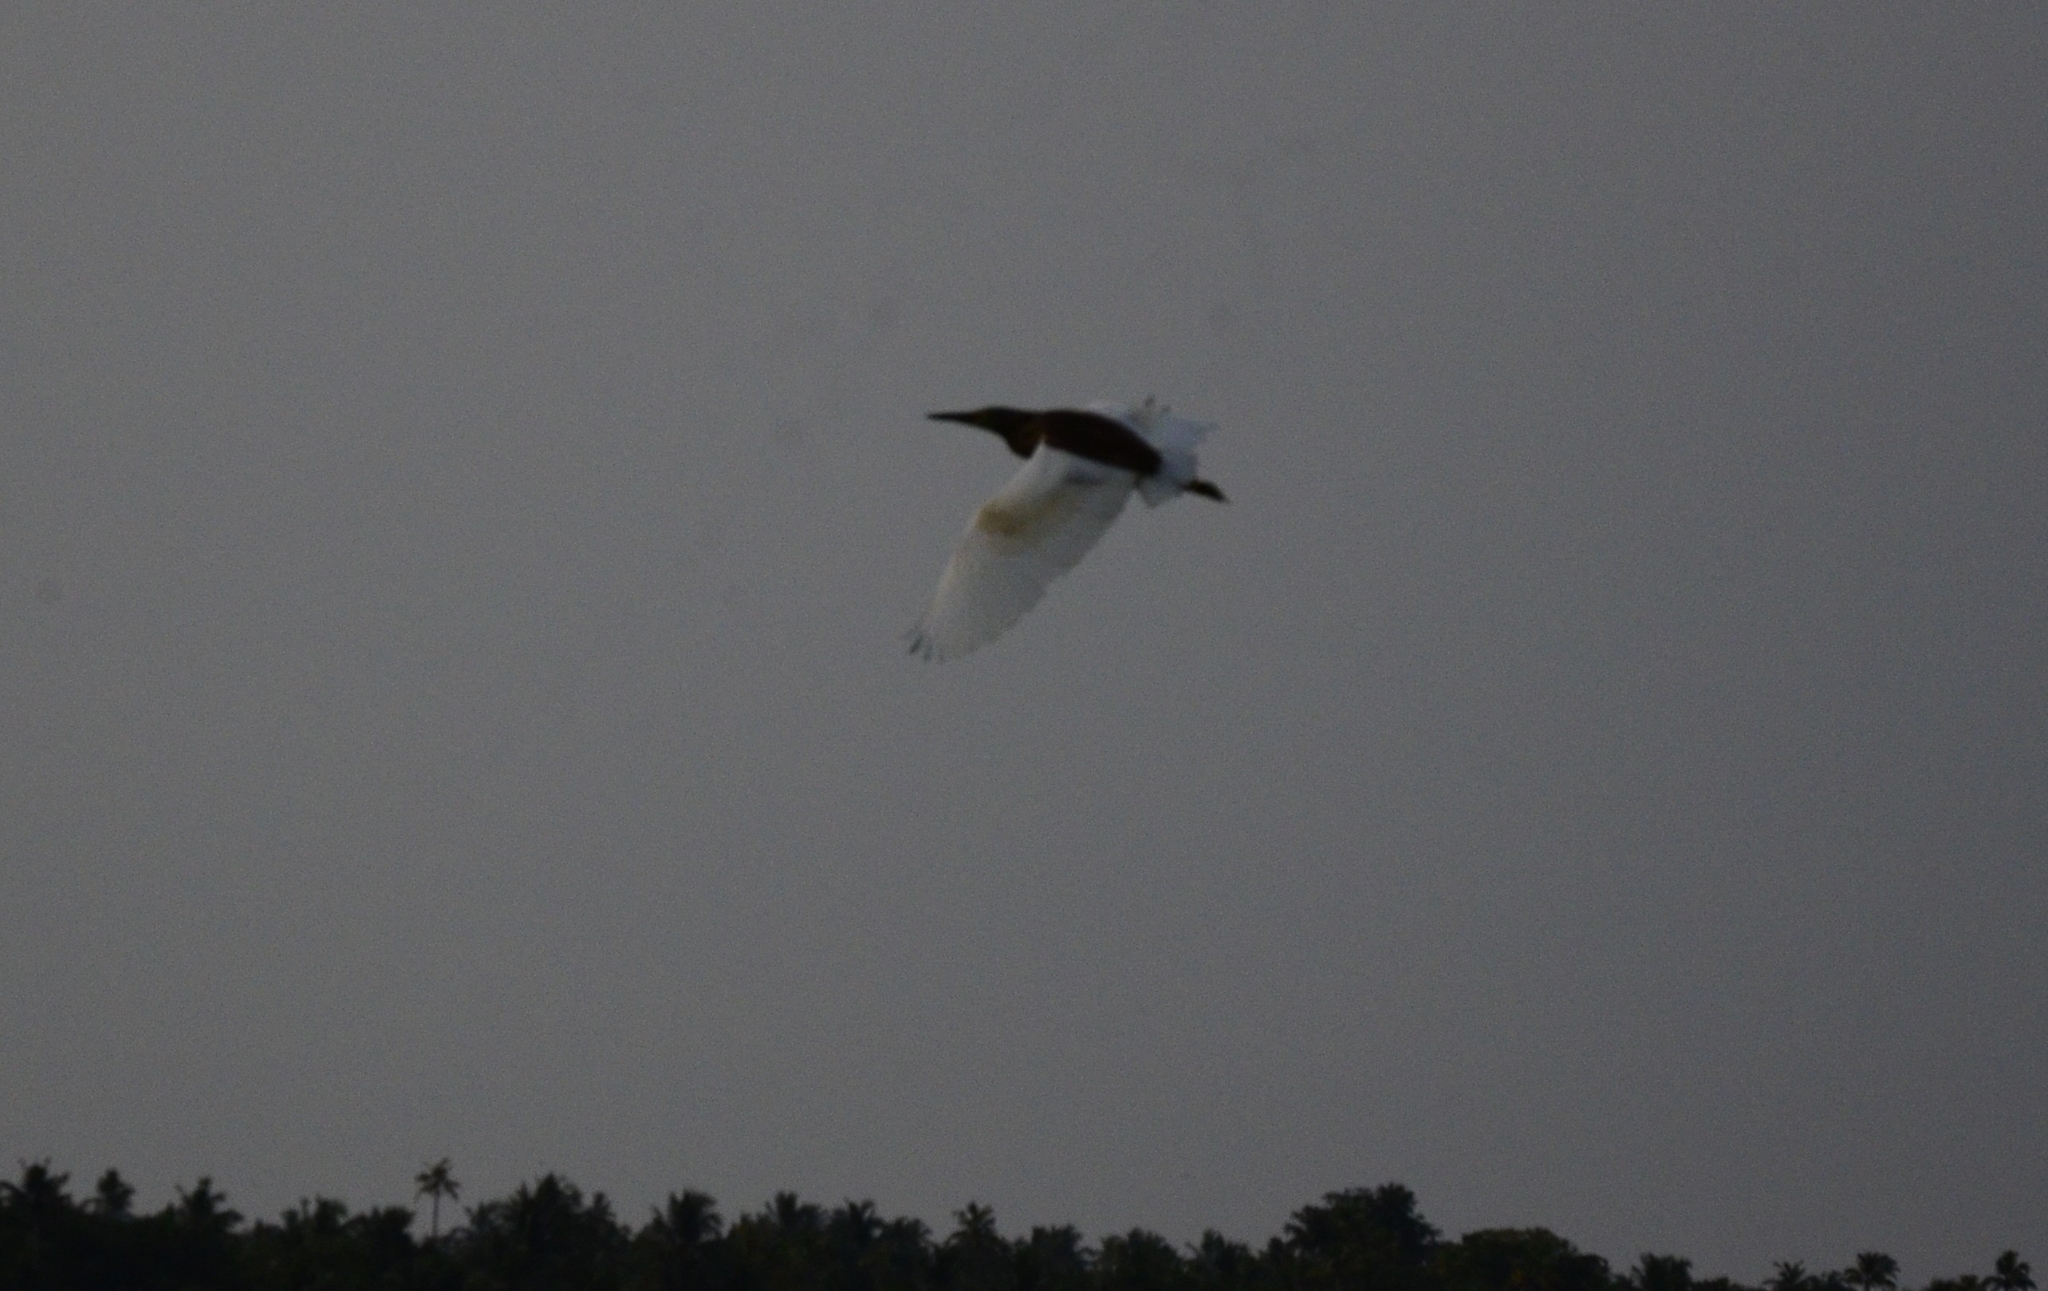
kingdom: Animalia
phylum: Chordata
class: Aves
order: Pelecaniformes
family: Ardeidae
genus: Ardeola
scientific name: Ardeola grayii
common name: Indian pond heron
